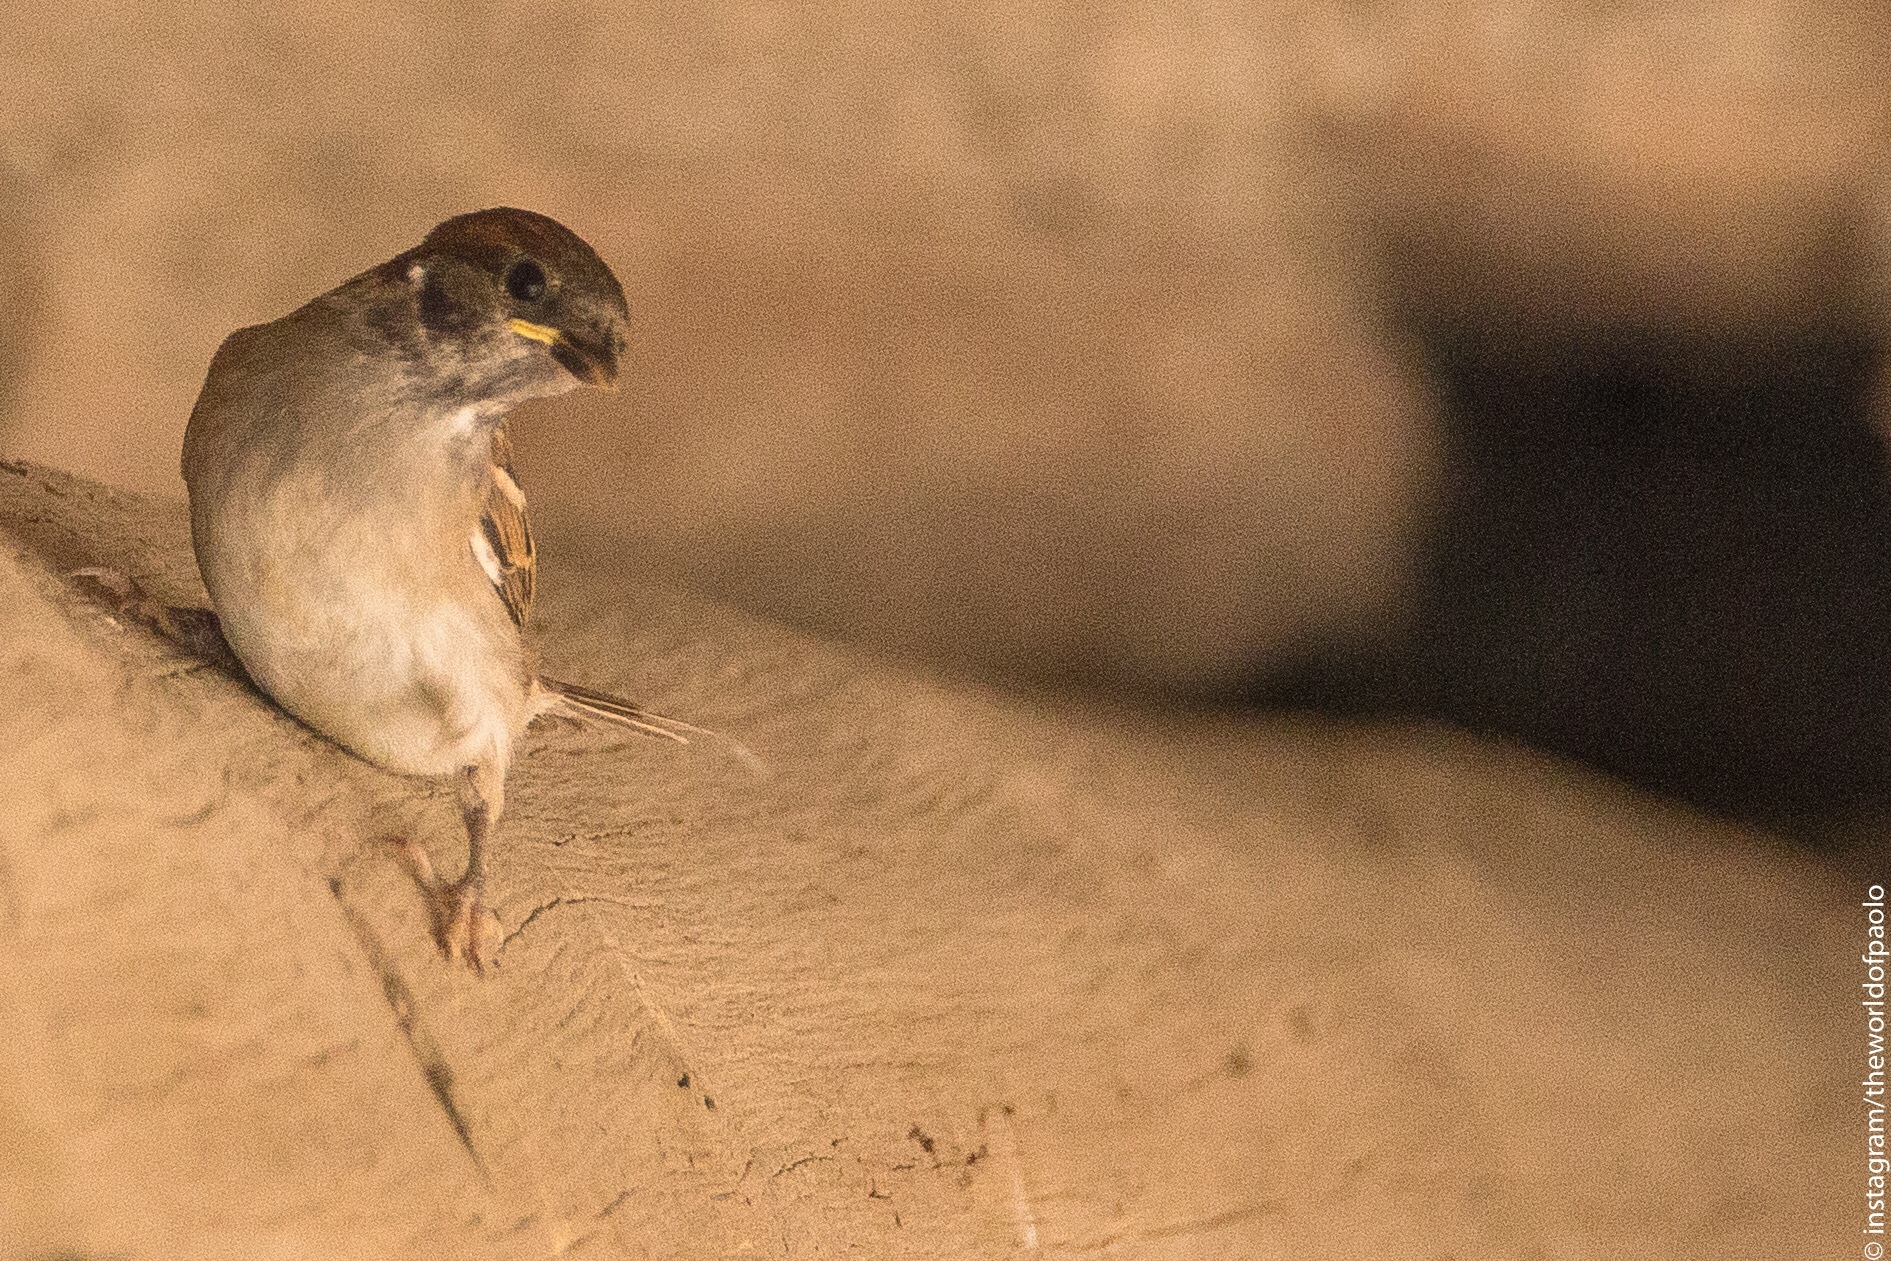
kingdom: Animalia
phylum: Chordata
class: Aves
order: Passeriformes
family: Passeridae
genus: Passer
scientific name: Passer italiae
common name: Italian sparrow
